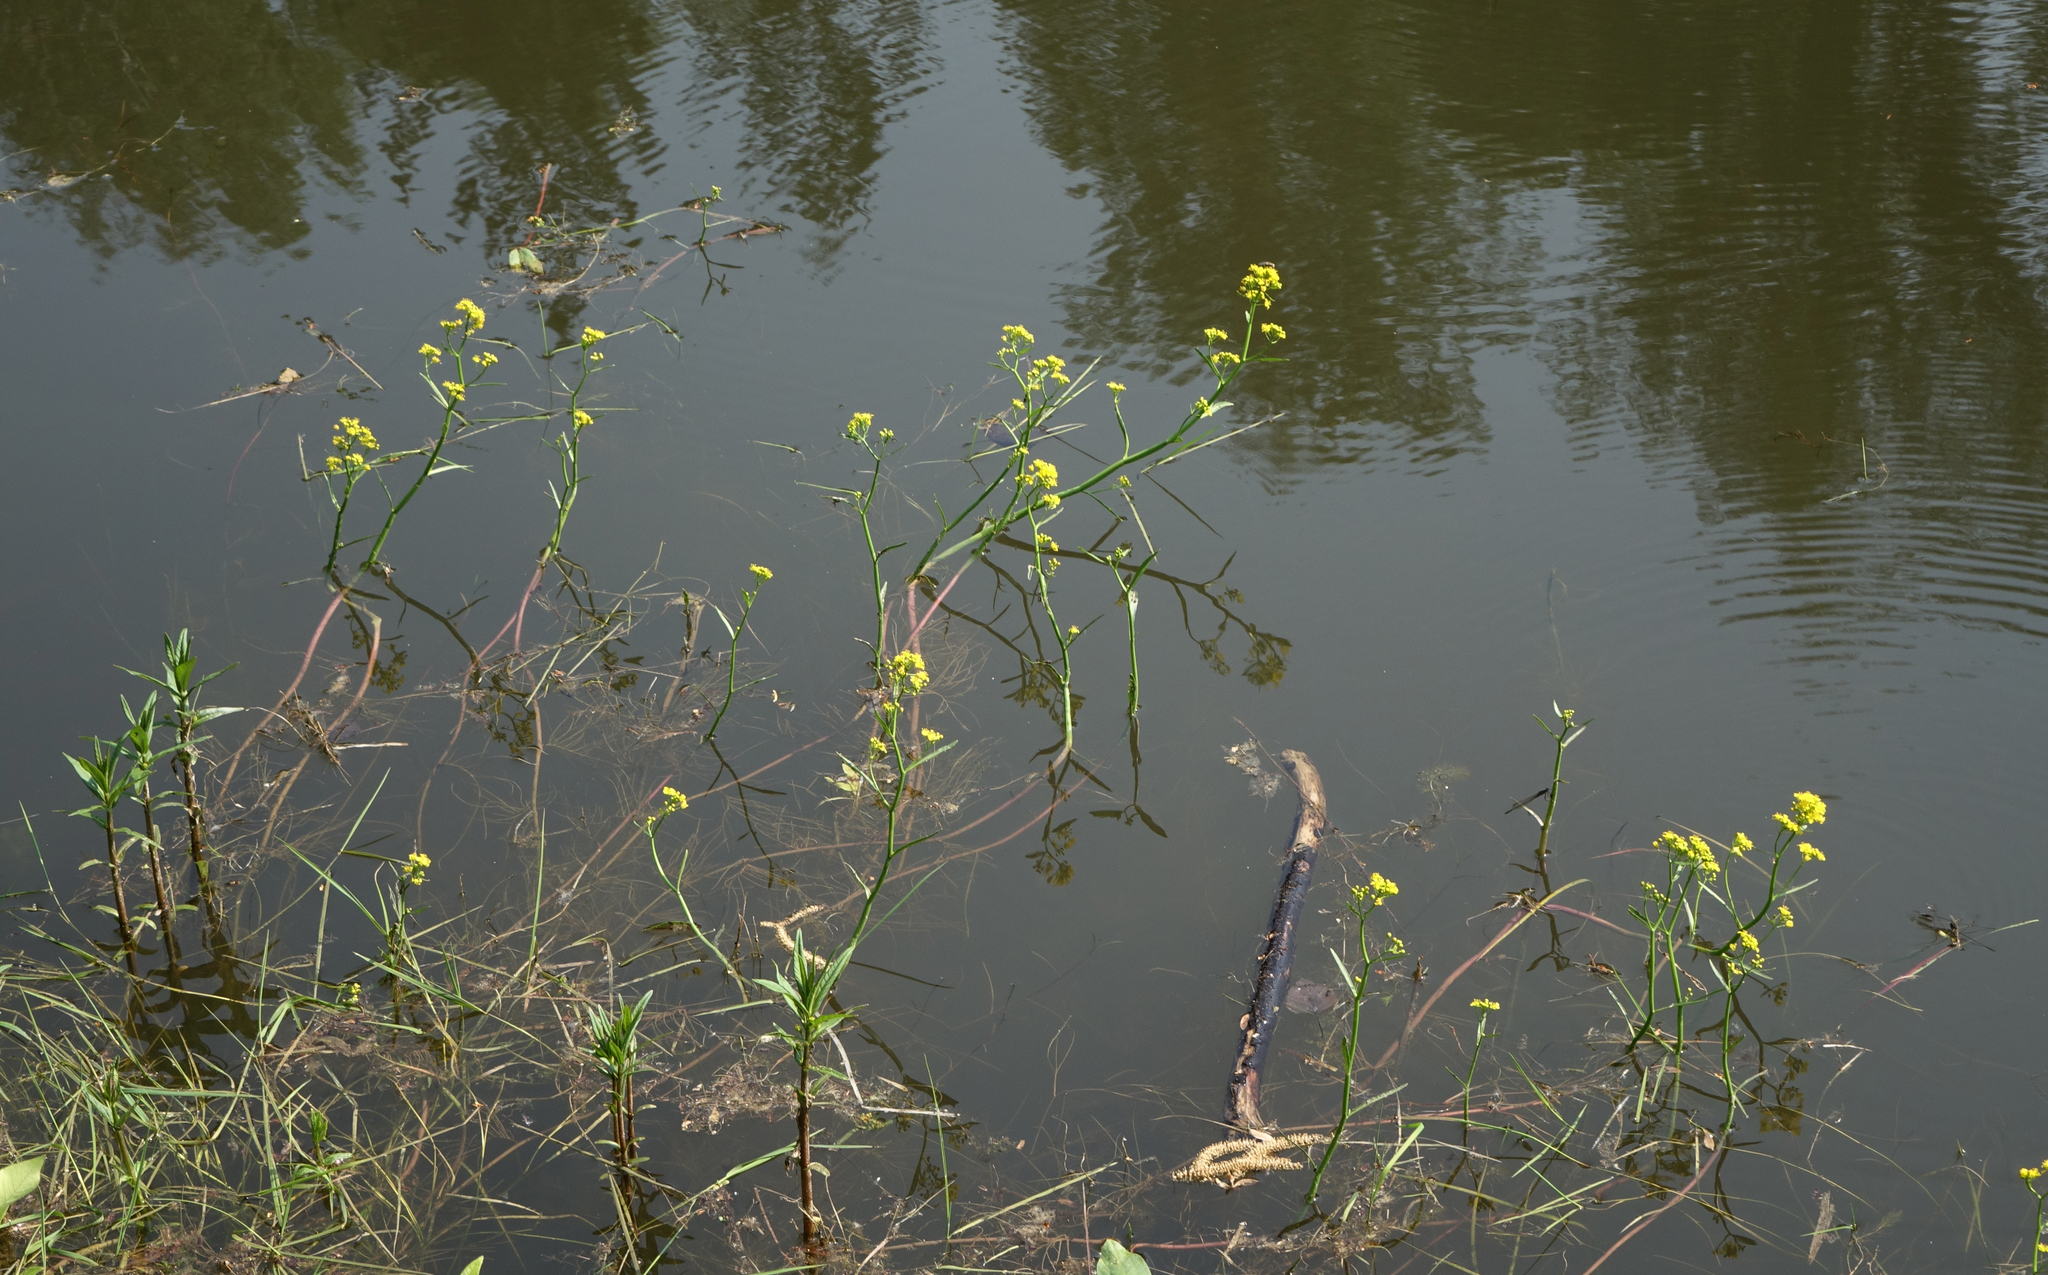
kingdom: Plantae
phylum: Tracheophyta
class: Magnoliopsida
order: Brassicales
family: Brassicaceae
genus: Rorippa
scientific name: Rorippa amphibia
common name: Great yellow-cress
